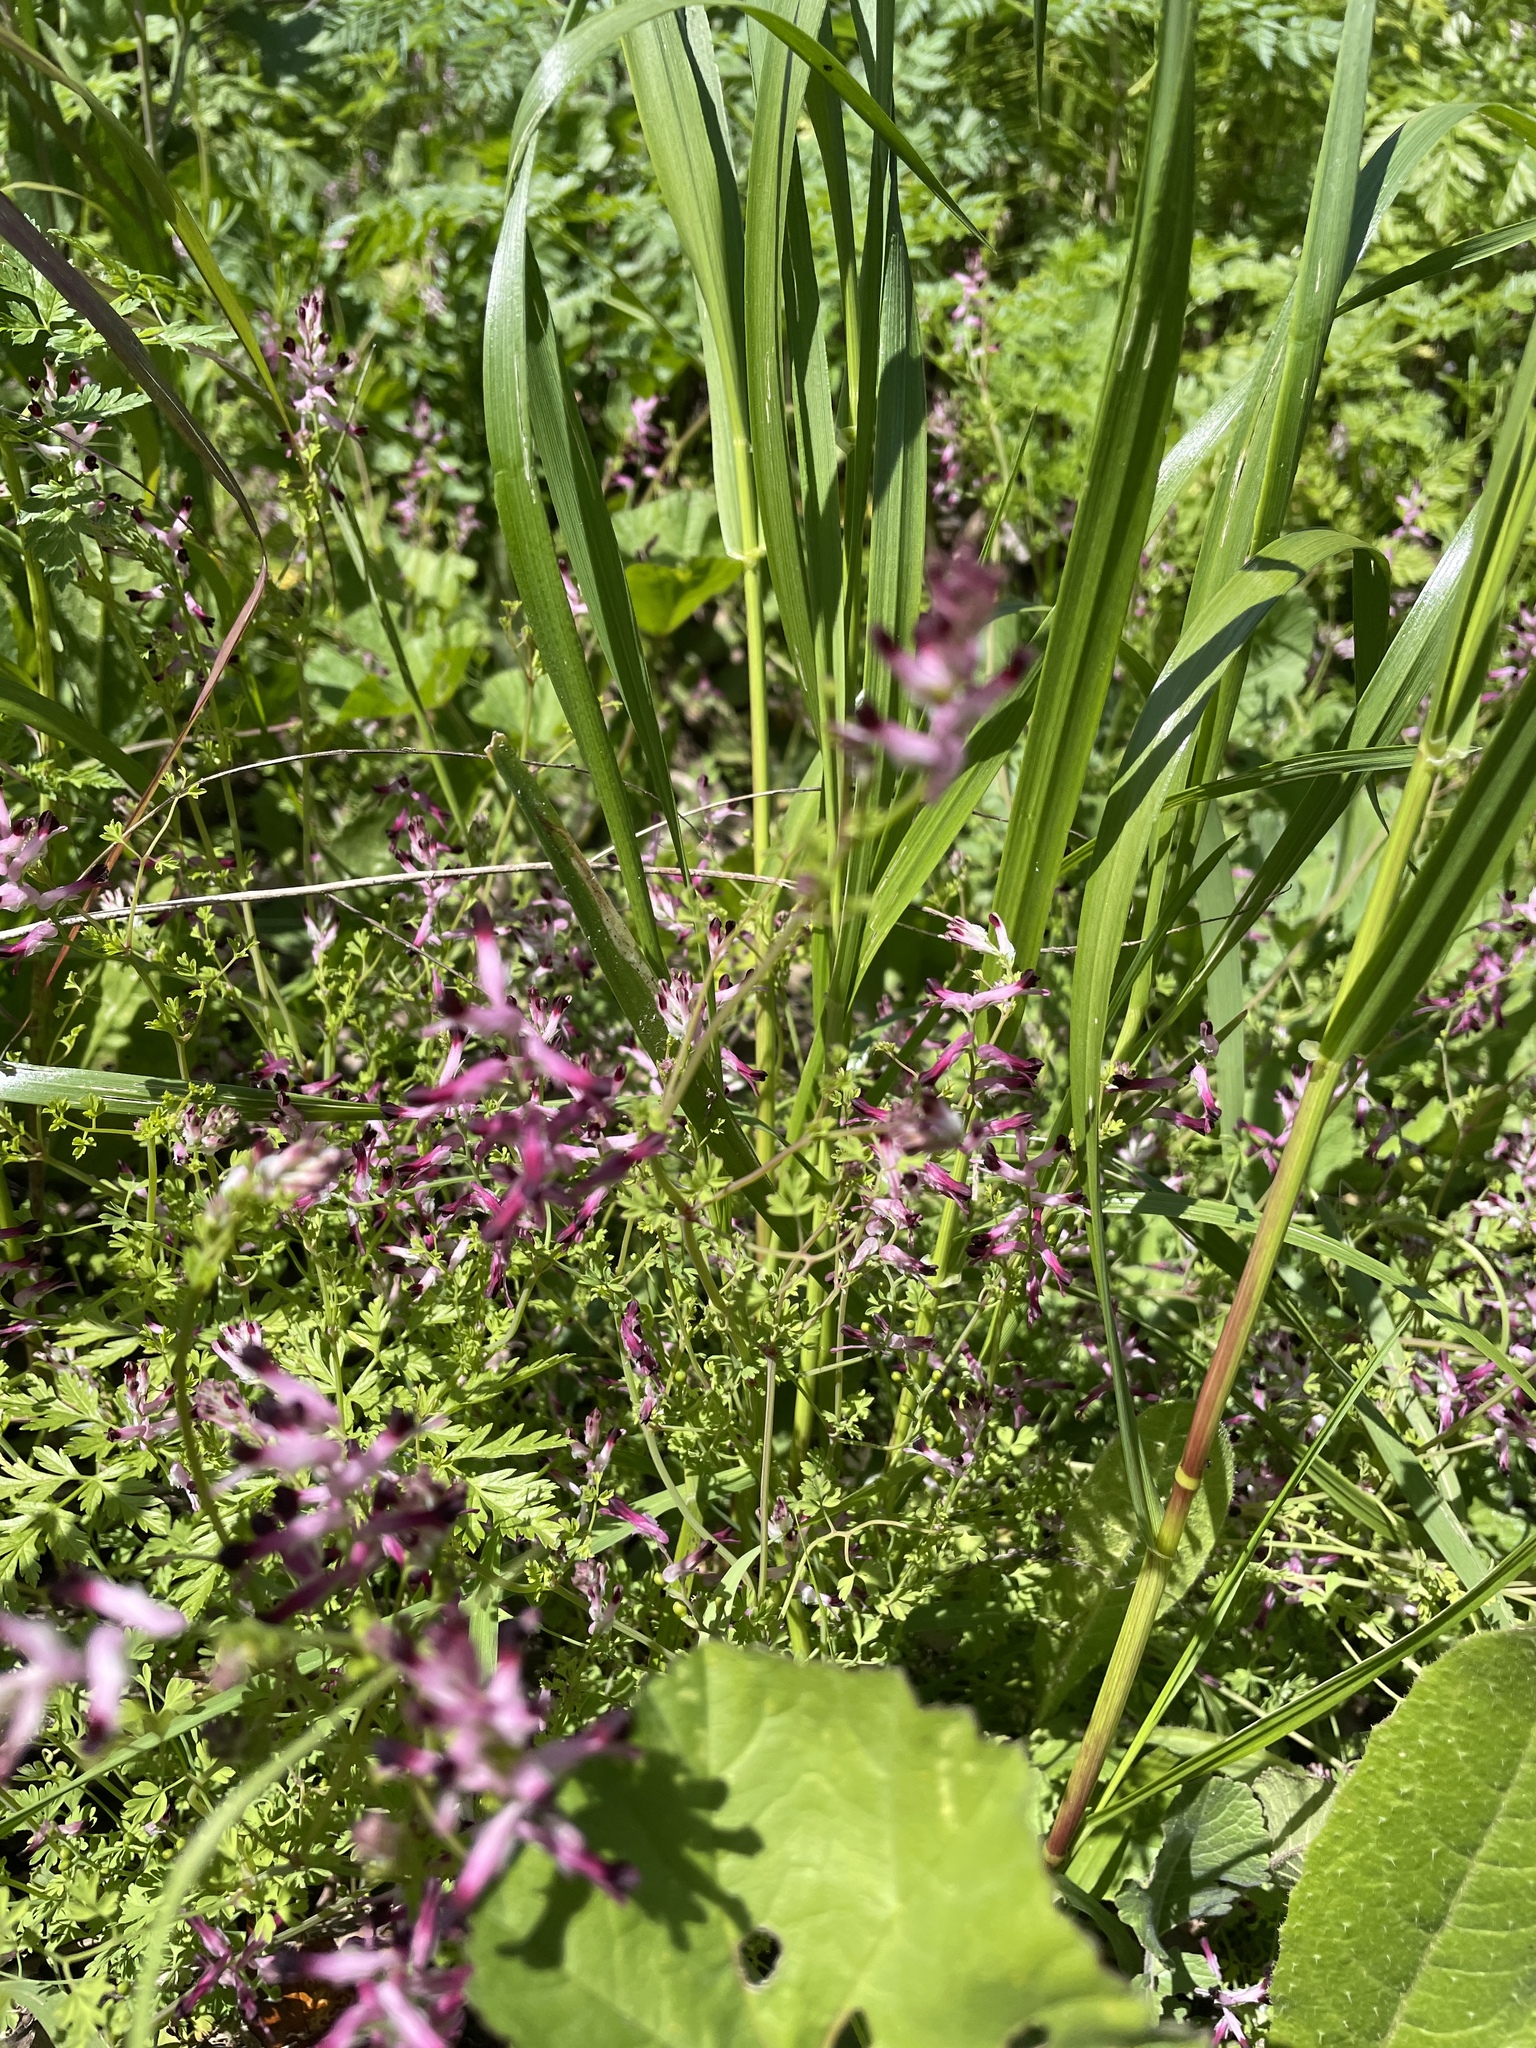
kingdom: Plantae
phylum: Tracheophyta
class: Magnoliopsida
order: Ranunculales
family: Papaveraceae
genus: Fumaria
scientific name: Fumaria muralis
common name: Common ramping-fumitory
